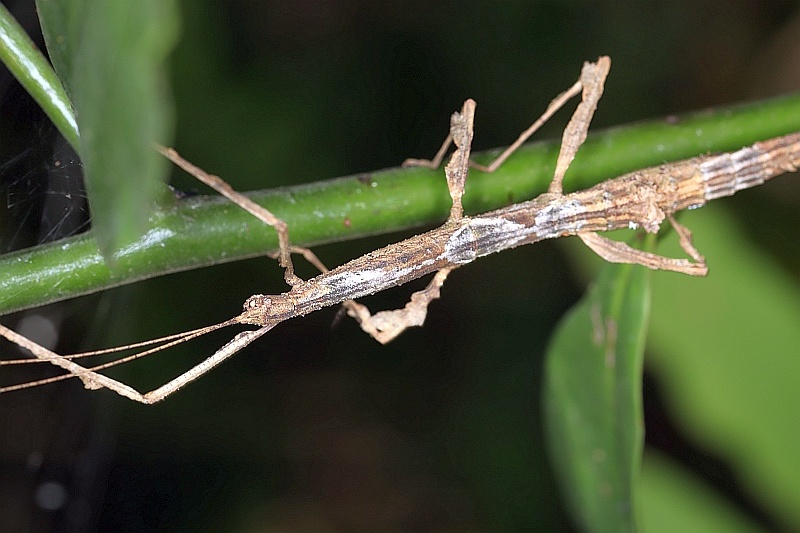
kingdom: Animalia
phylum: Arthropoda
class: Insecta
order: Phasmida
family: Diapheromeridae
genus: Lobolibethra
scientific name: Lobolibethra panguana
